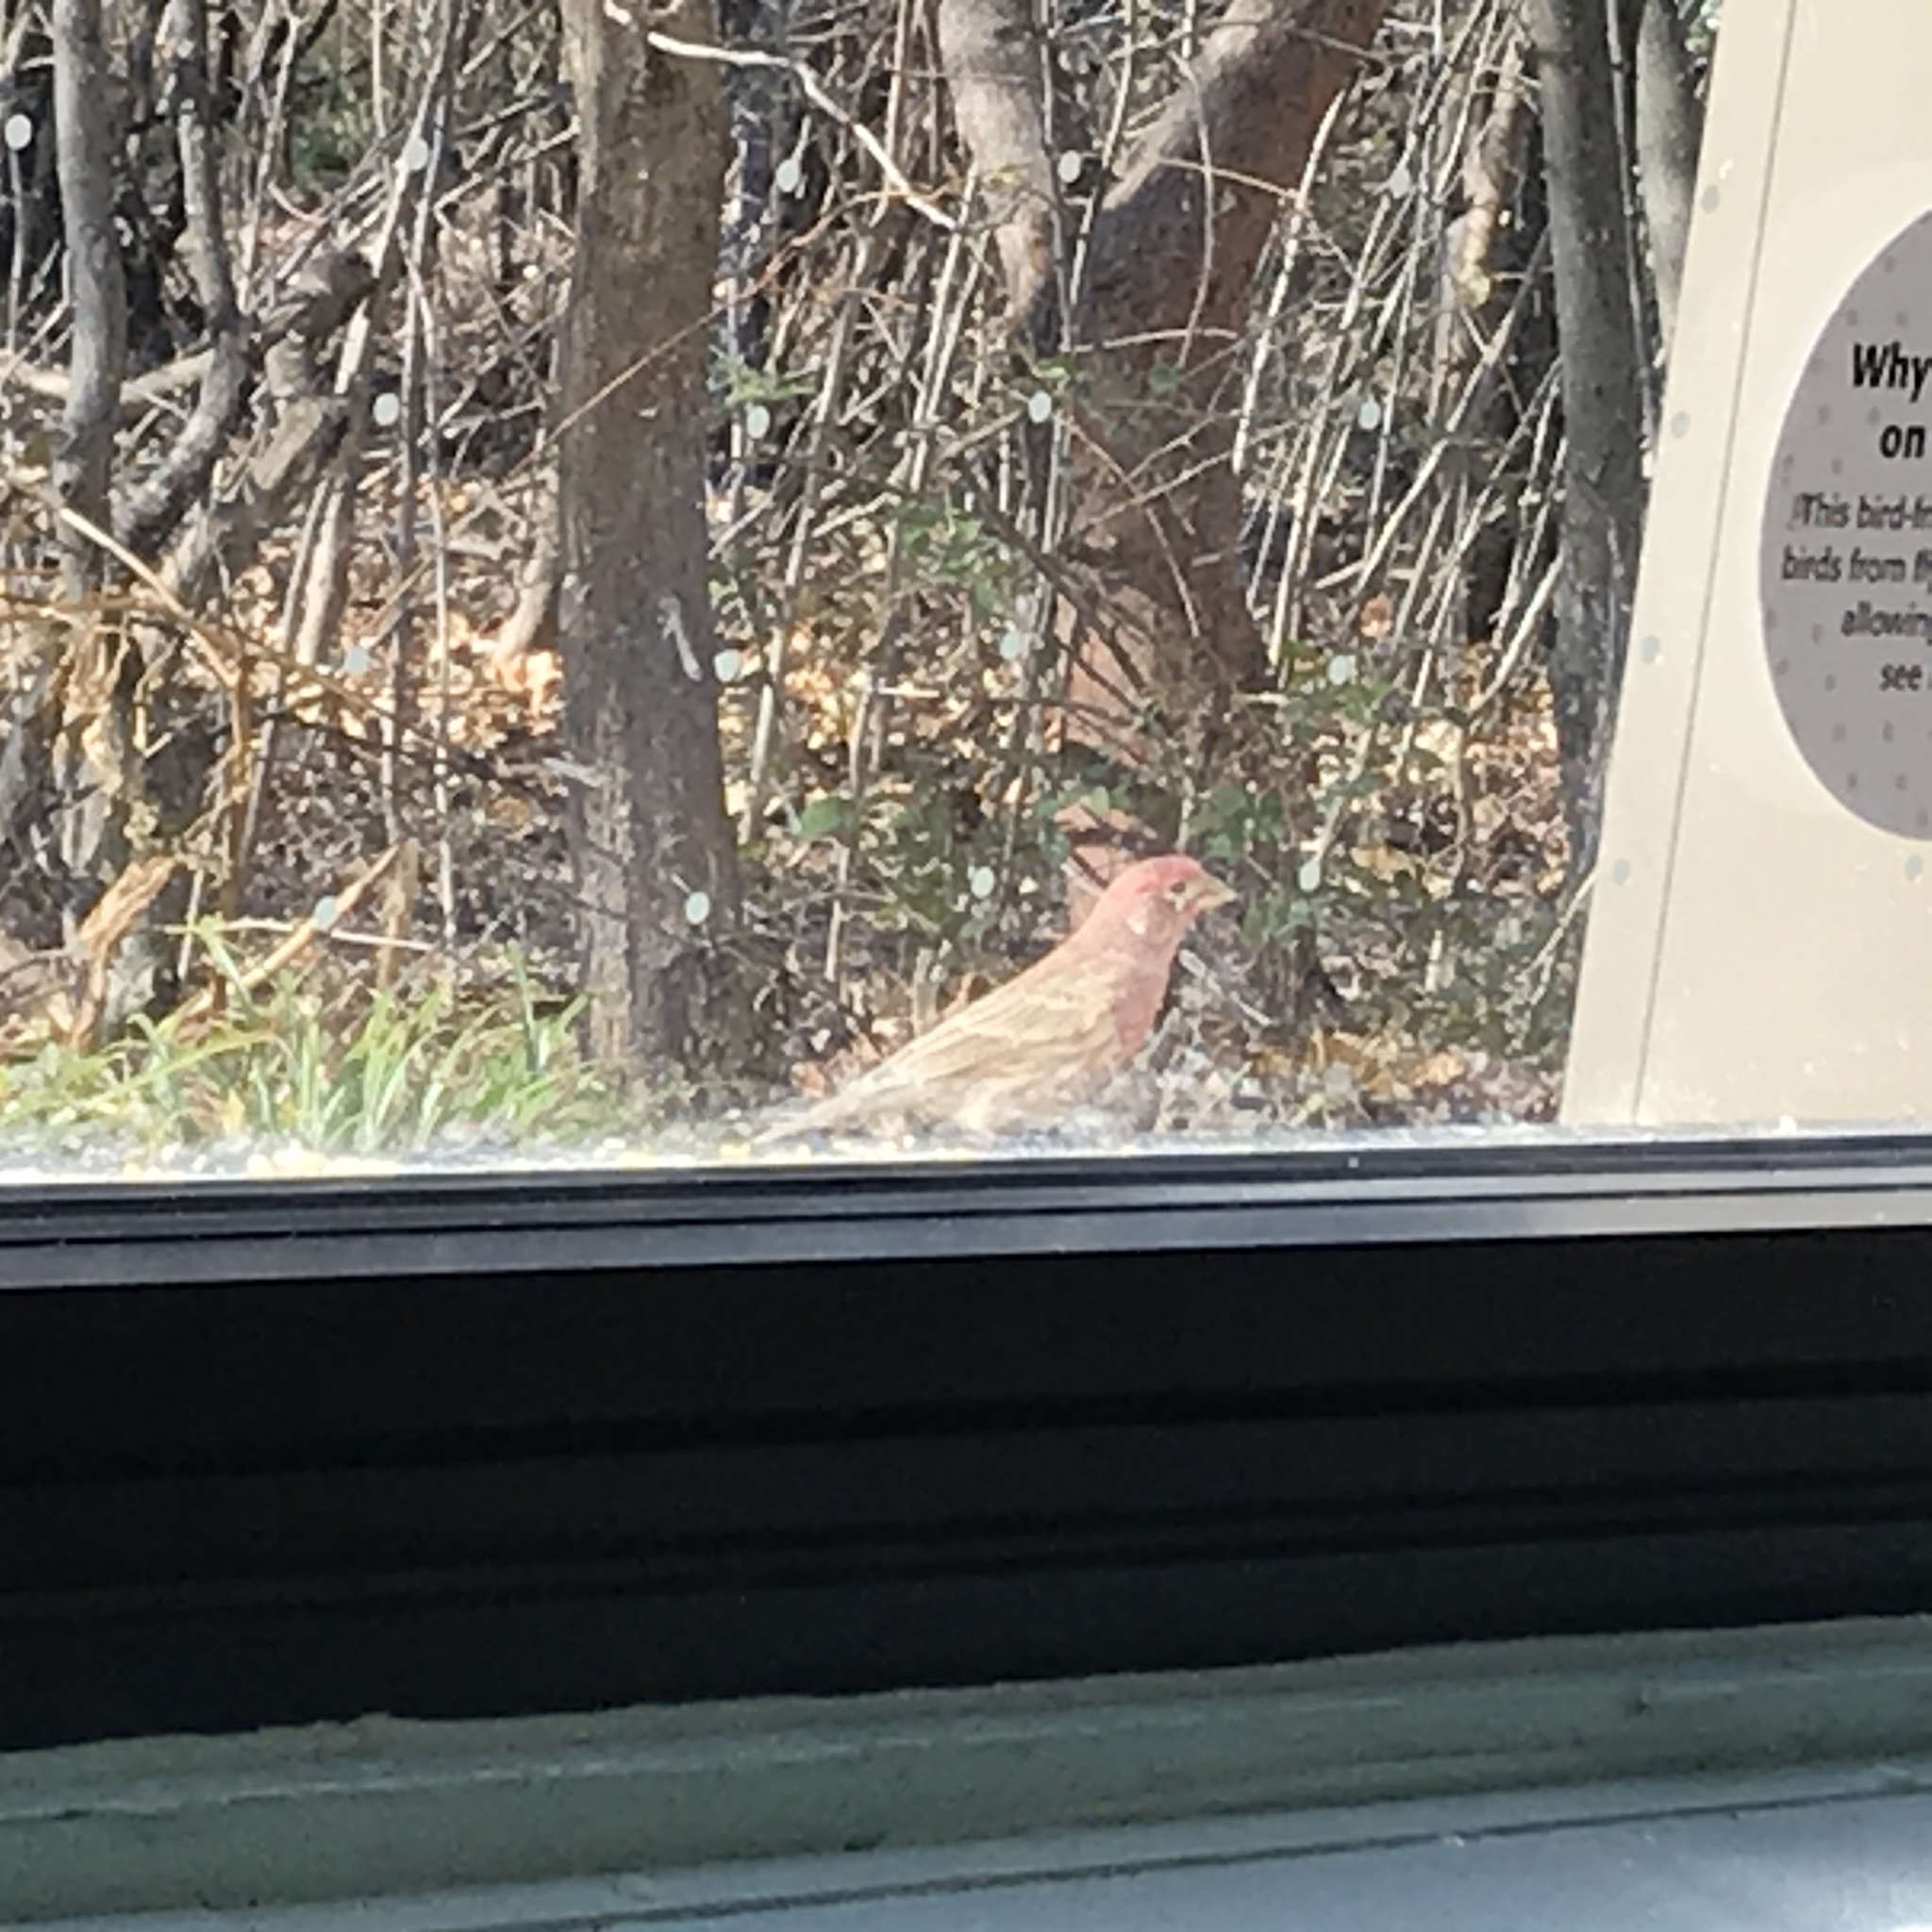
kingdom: Animalia
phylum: Chordata
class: Aves
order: Passeriformes
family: Fringillidae
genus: Haemorhous
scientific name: Haemorhous mexicanus
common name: House finch
